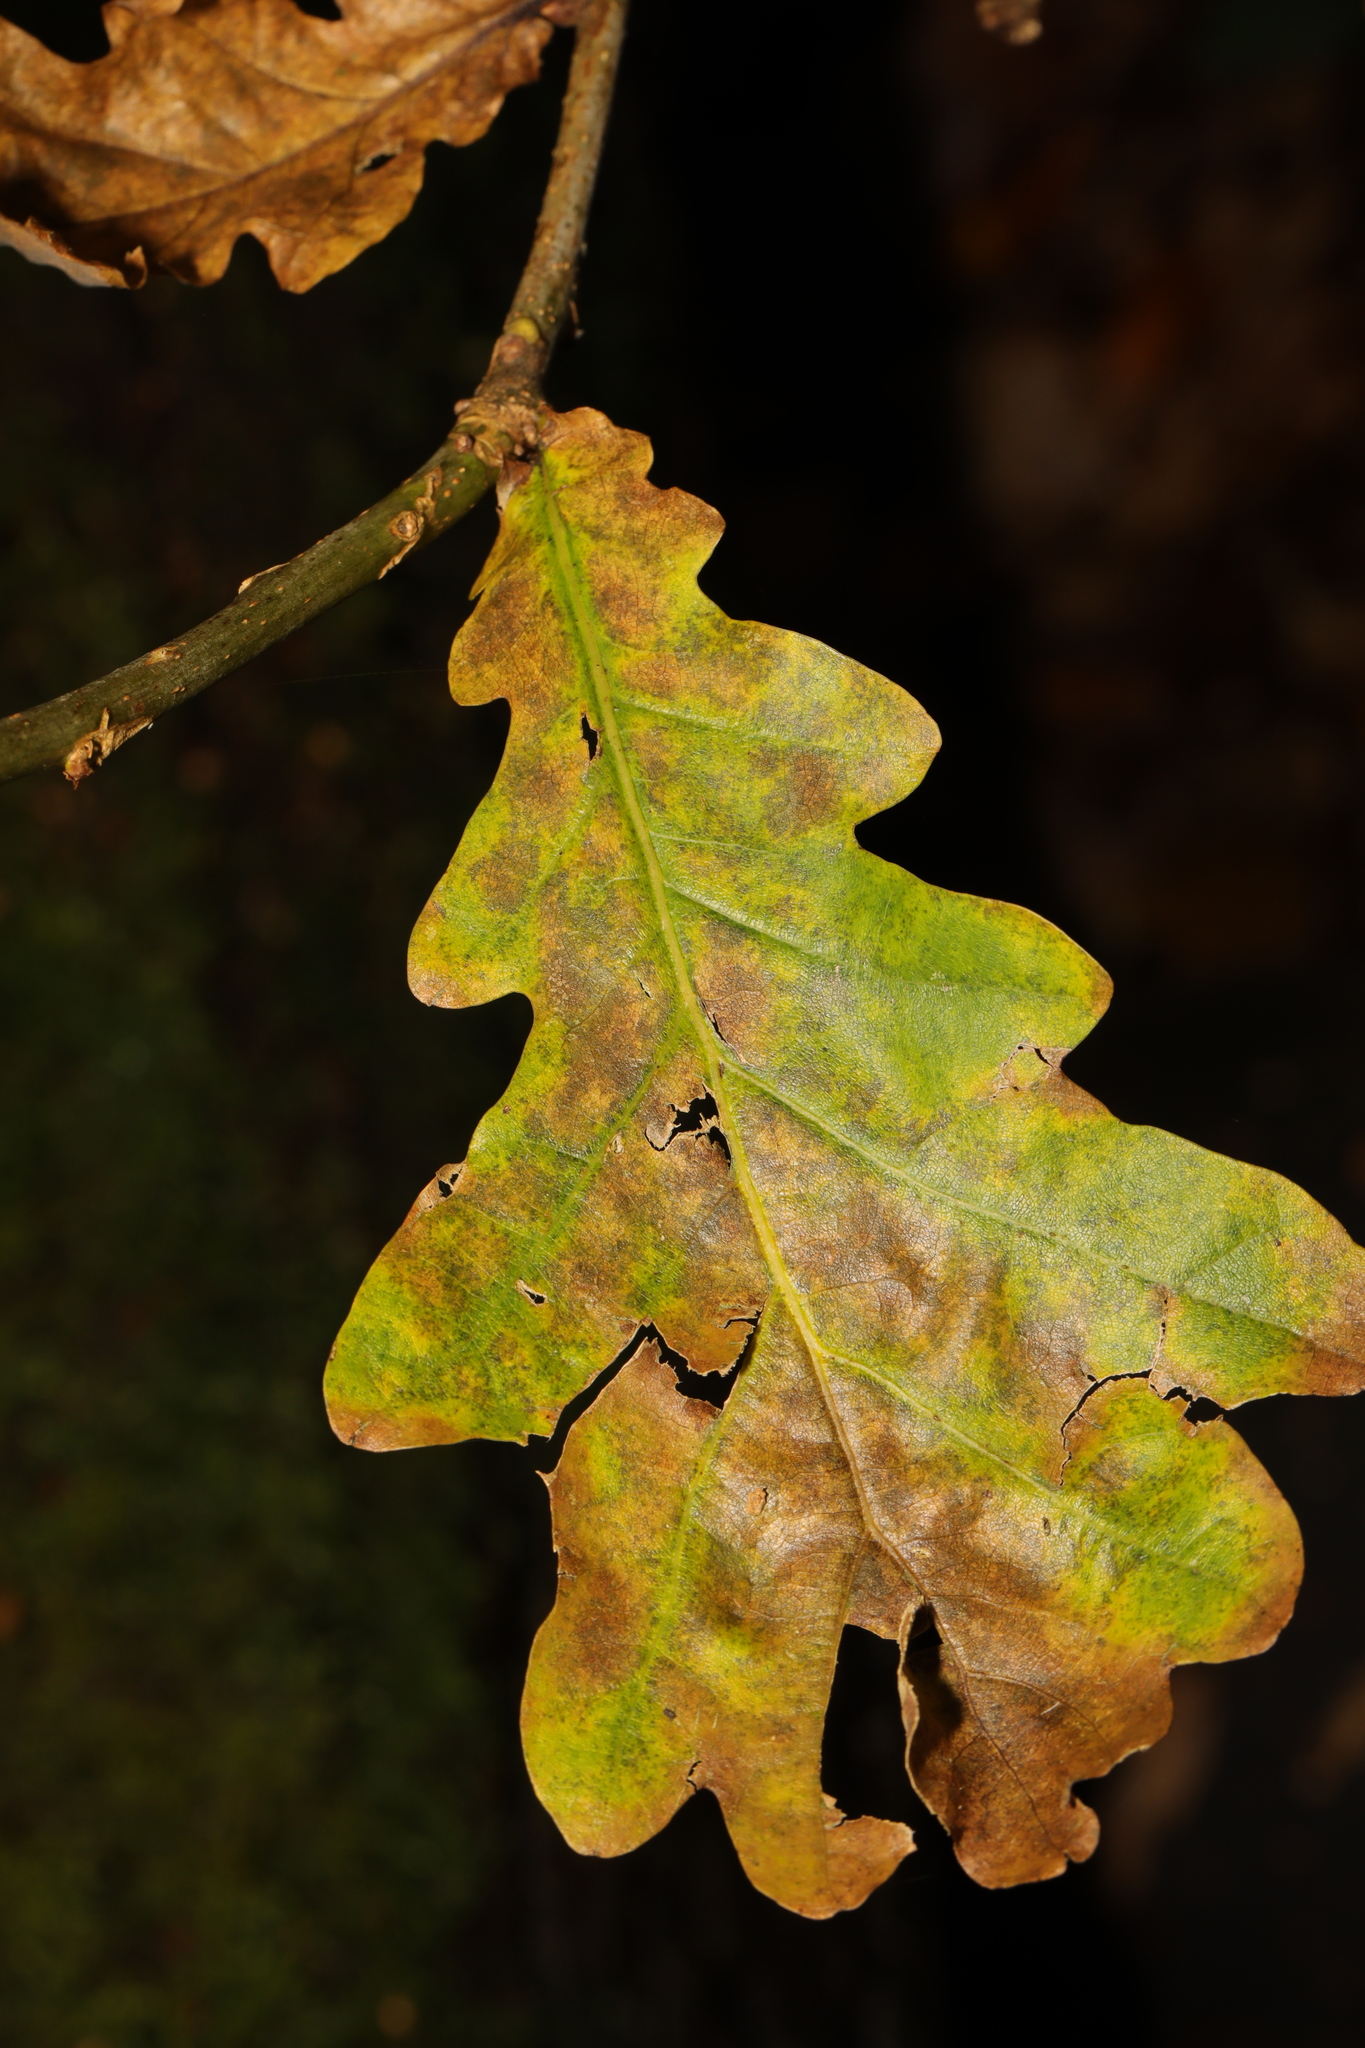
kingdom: Plantae
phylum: Tracheophyta
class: Magnoliopsida
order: Fagales
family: Fagaceae
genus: Quercus
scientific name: Quercus robur
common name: Pedunculate oak
